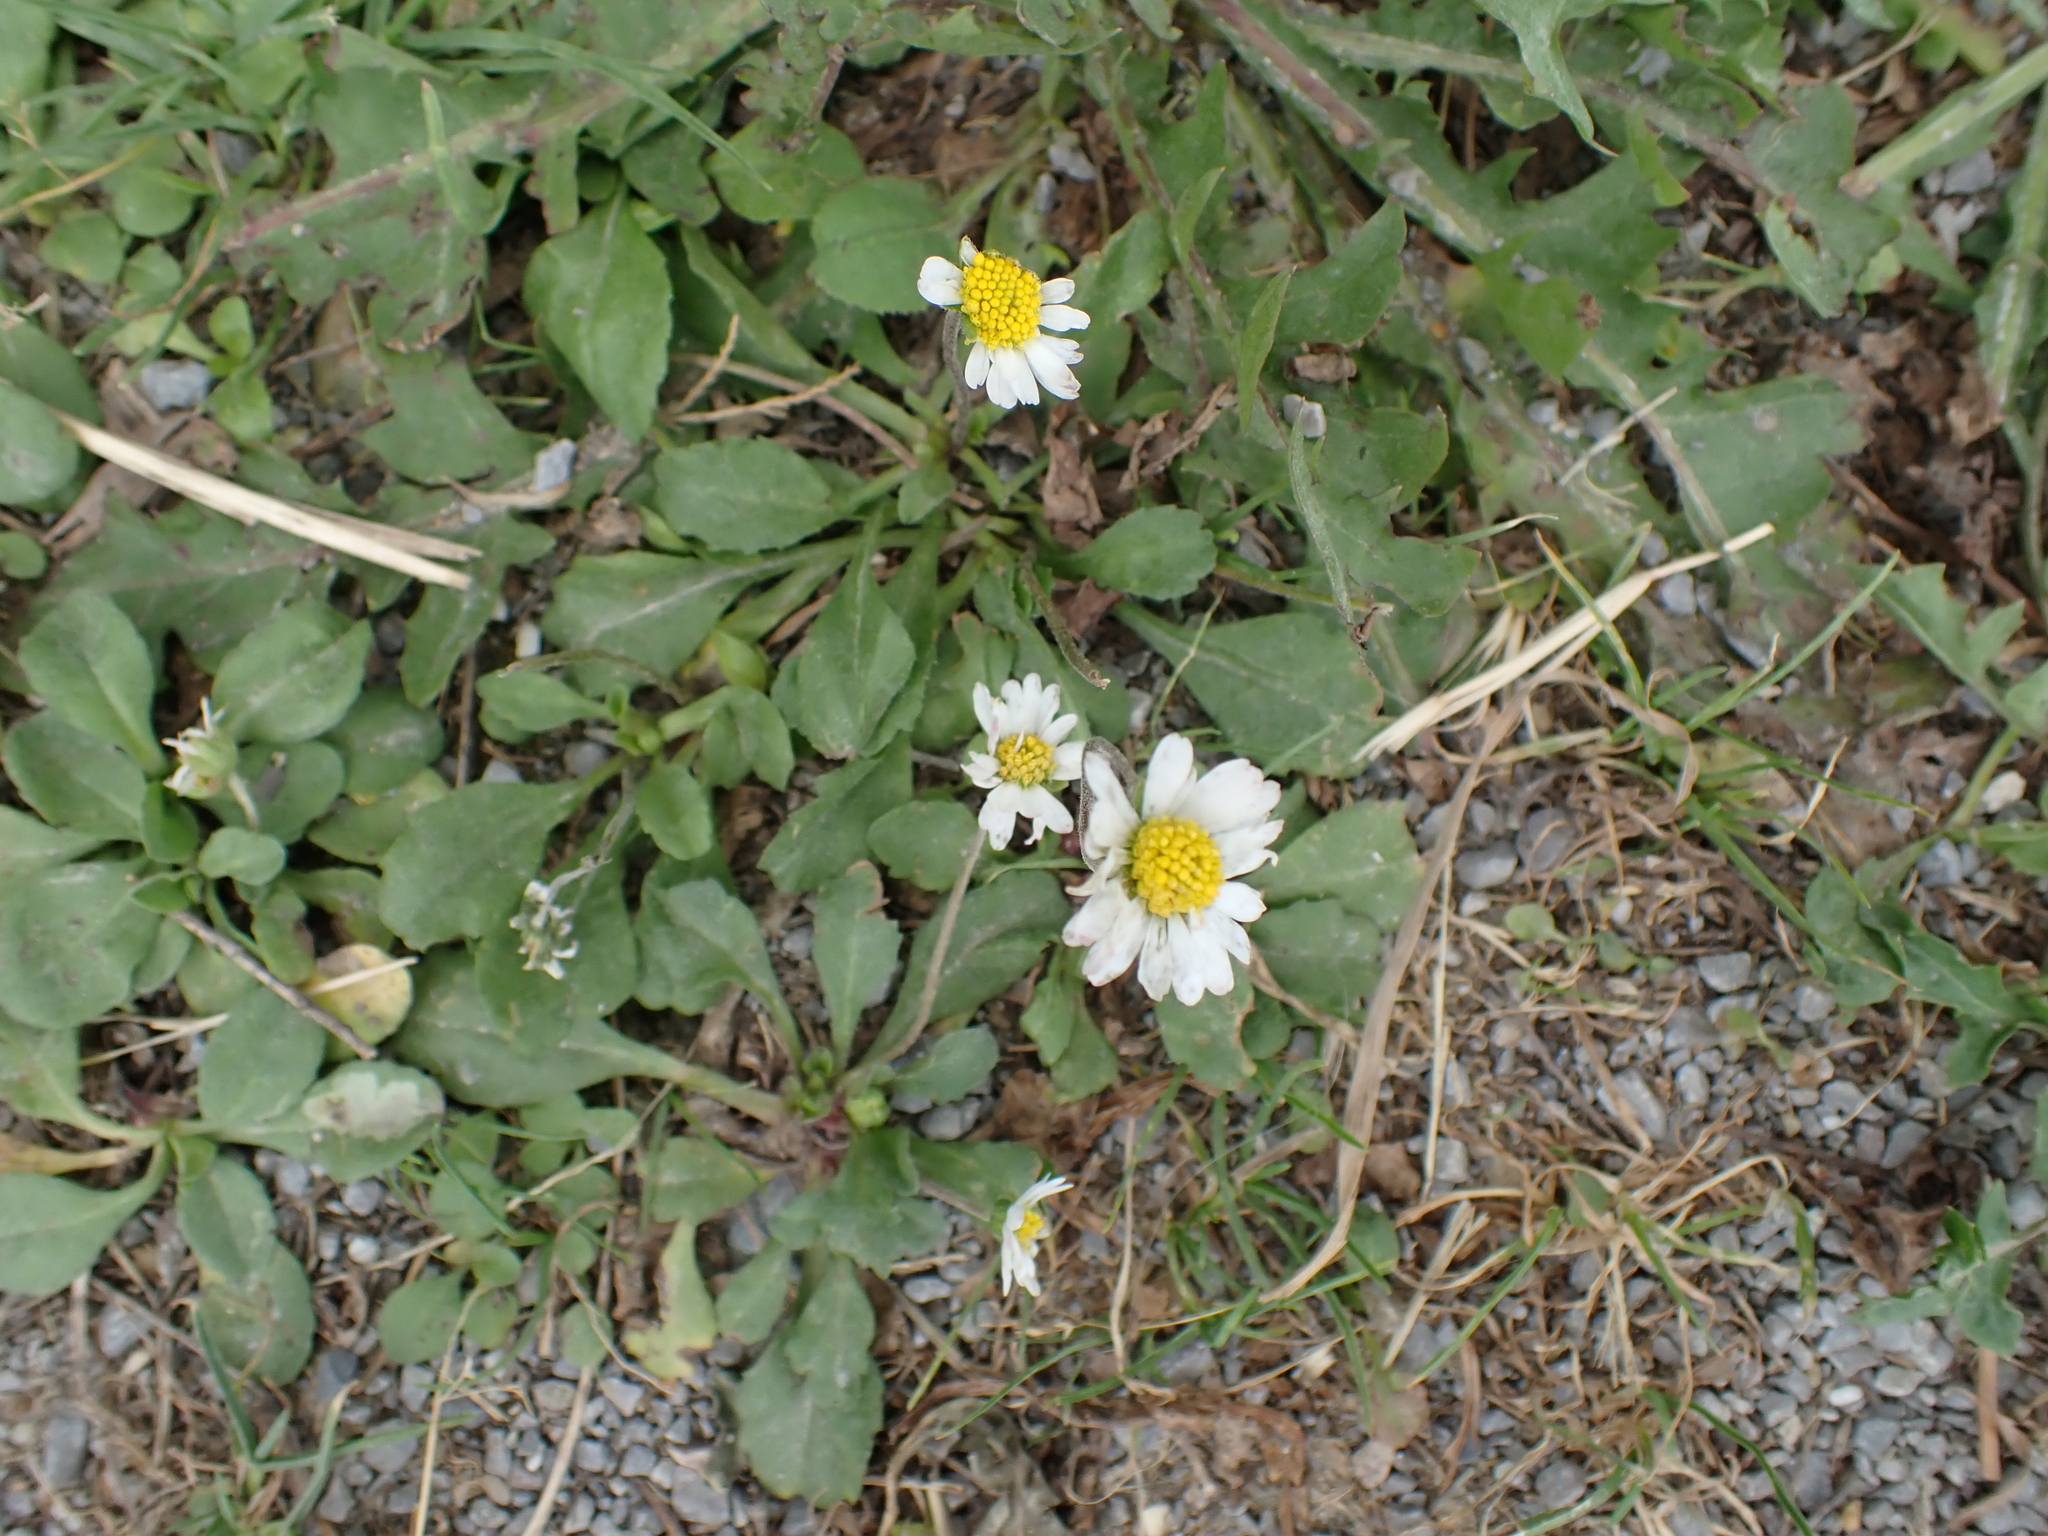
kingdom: Plantae
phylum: Tracheophyta
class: Magnoliopsida
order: Asterales
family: Asteraceae
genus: Bellis
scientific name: Bellis perennis
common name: Lawndaisy
